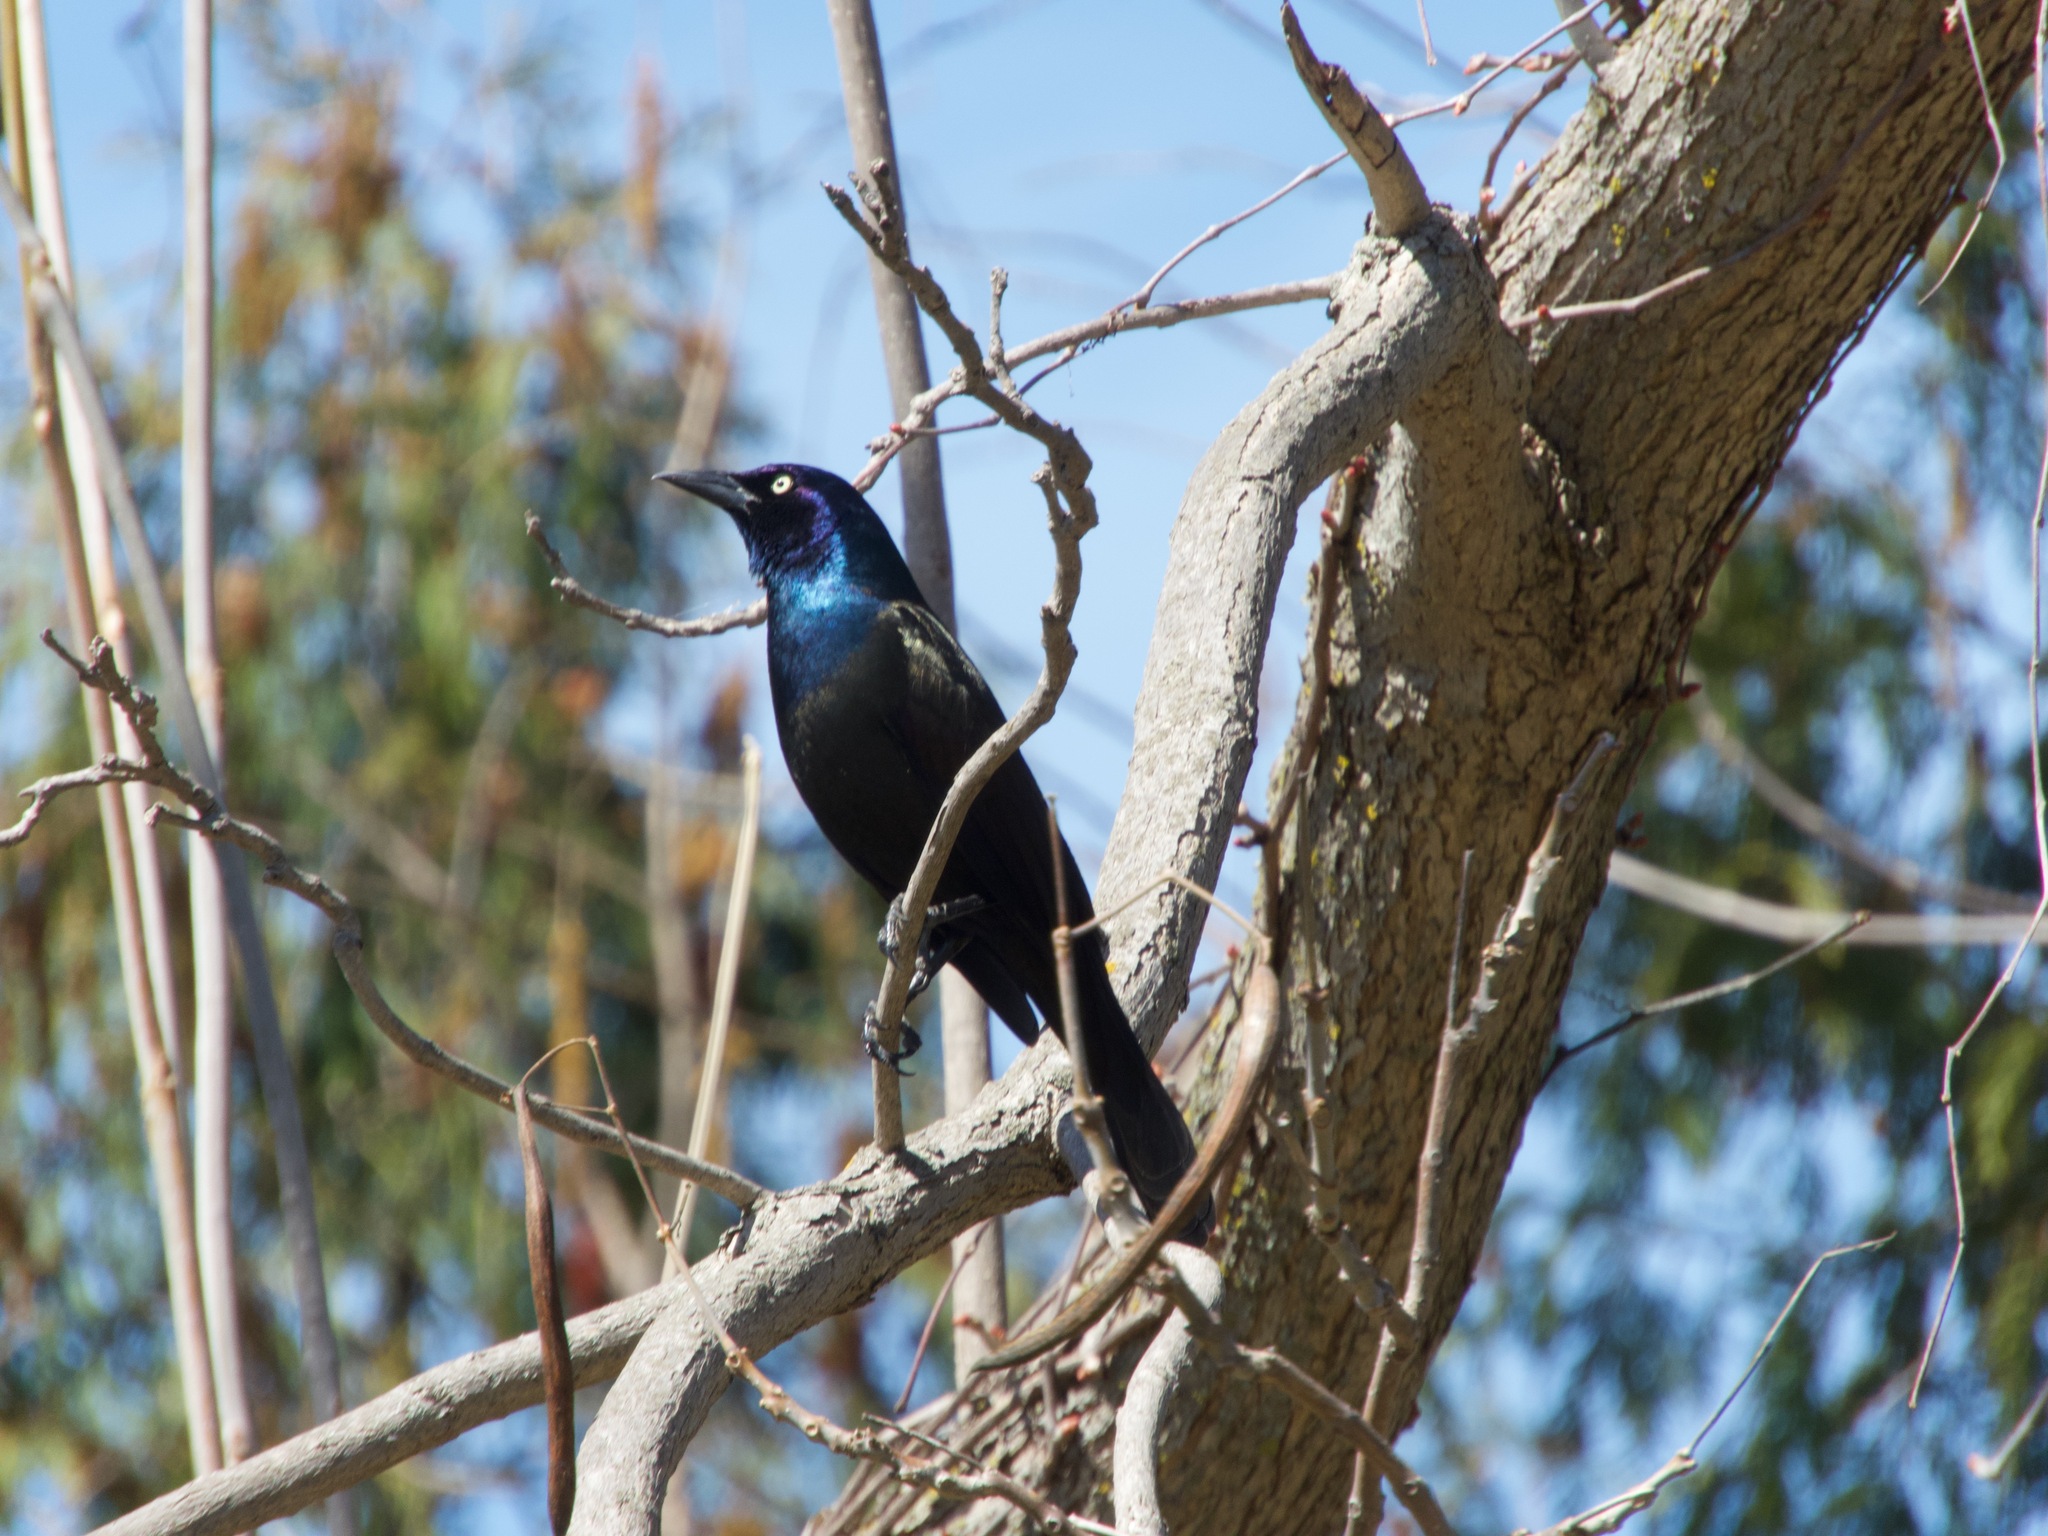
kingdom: Animalia
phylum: Chordata
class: Aves
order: Passeriformes
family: Icteridae
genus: Quiscalus
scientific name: Quiscalus quiscula
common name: Common grackle
